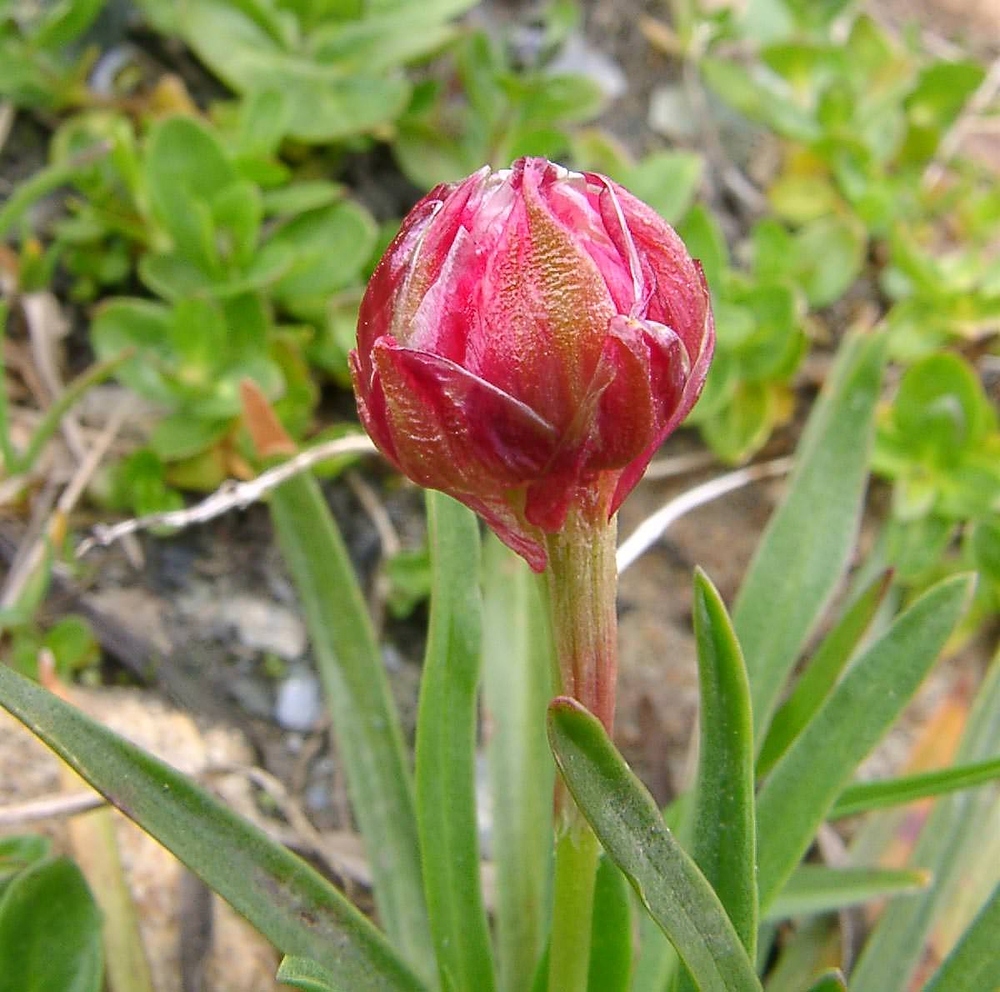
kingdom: Plantae
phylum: Tracheophyta
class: Magnoliopsida
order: Caryophyllales
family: Plumbaginaceae
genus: Armeria
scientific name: Armeria alpina
